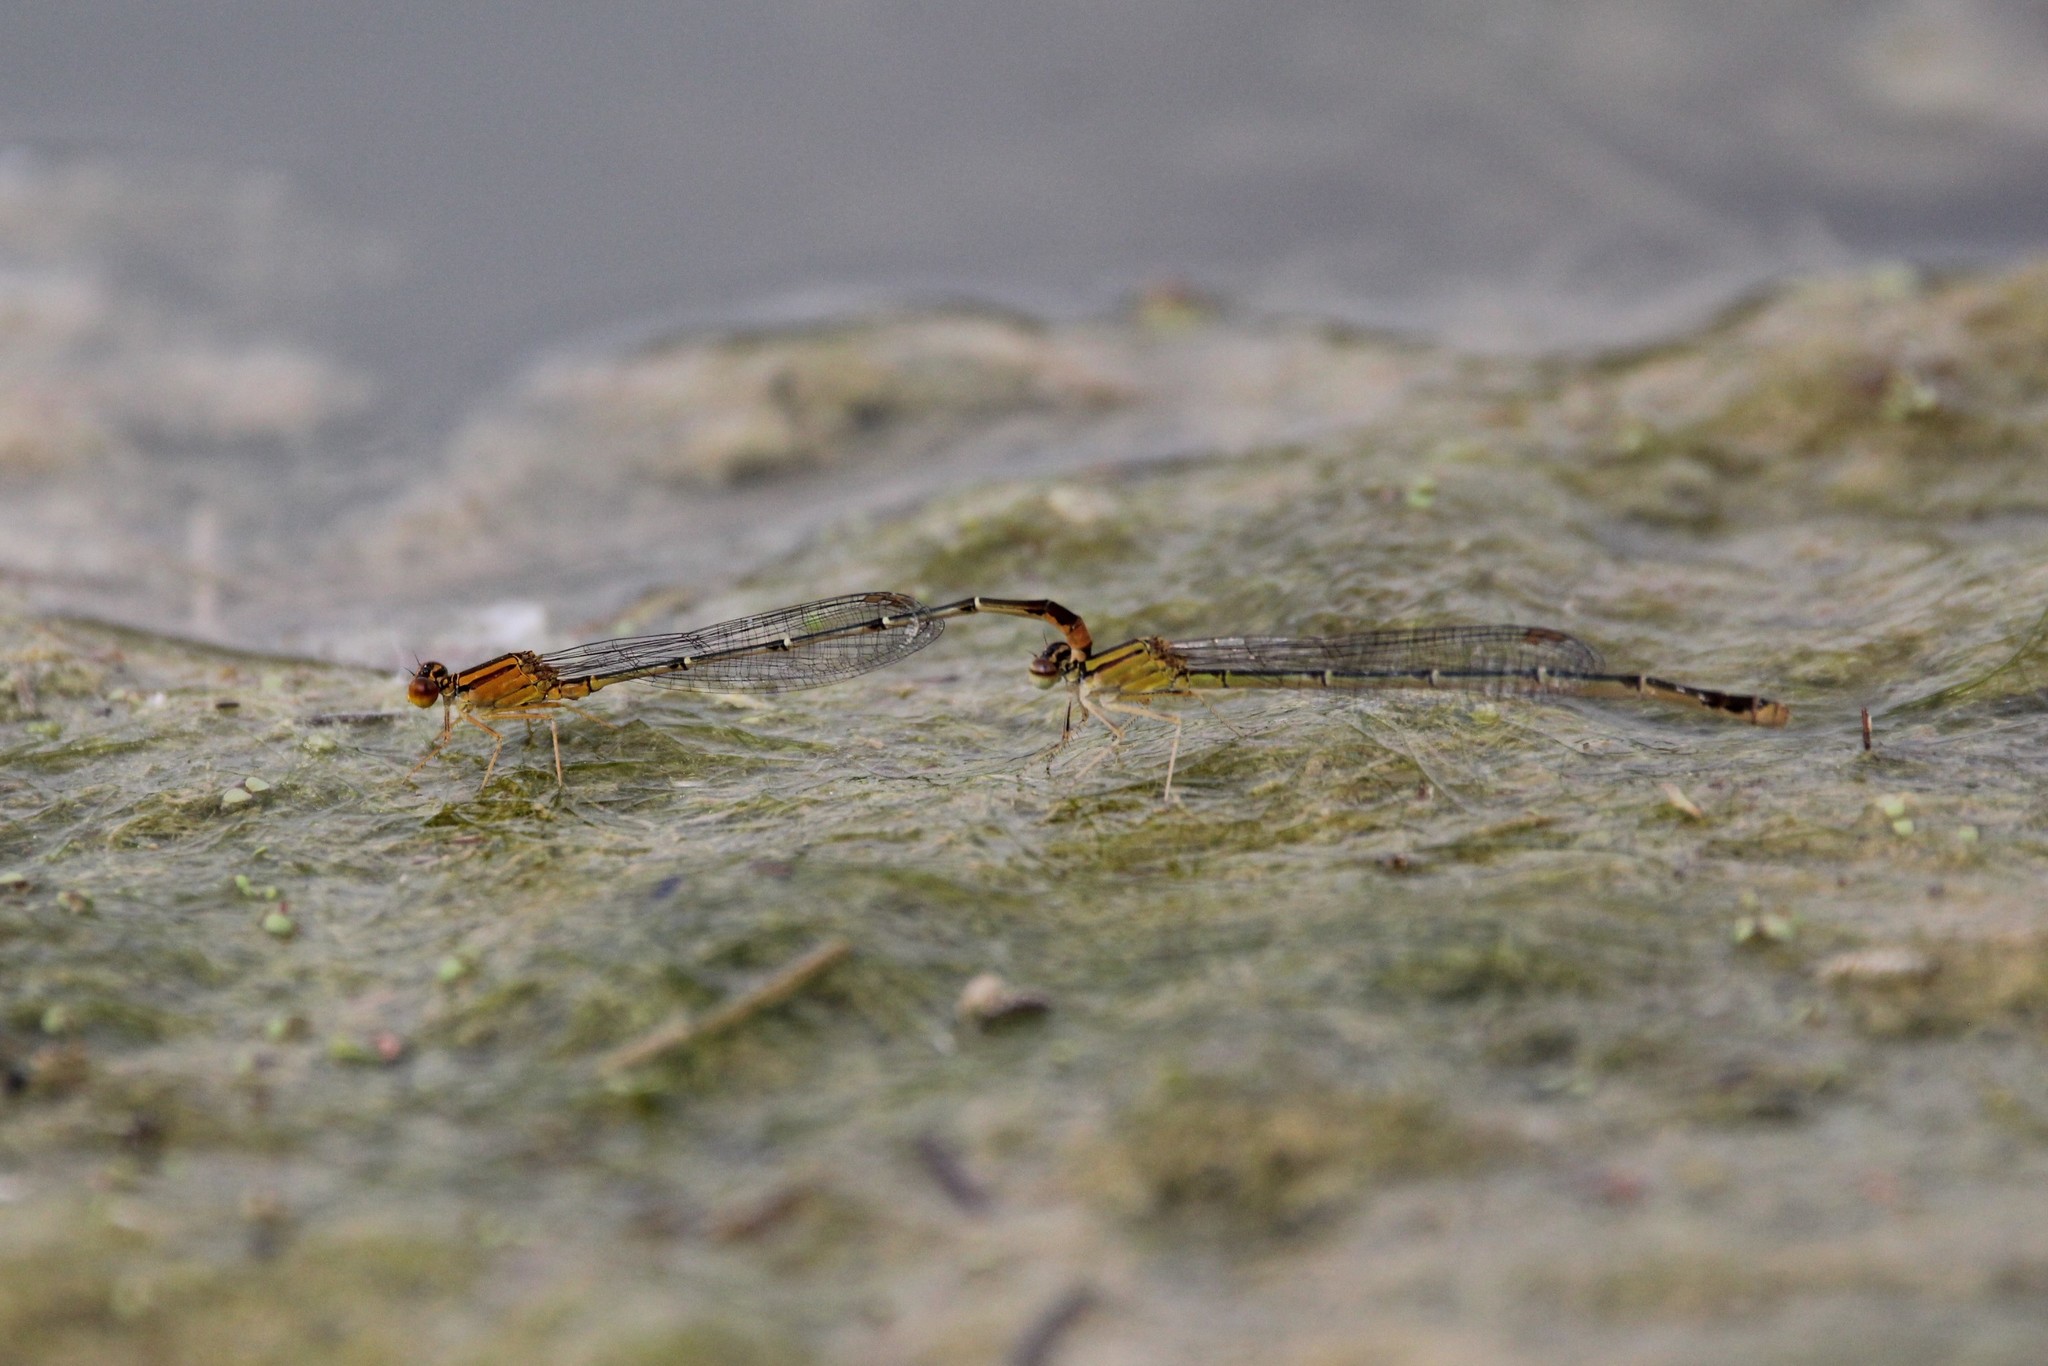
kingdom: Animalia
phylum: Arthropoda
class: Insecta
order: Odonata
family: Coenagrionidae
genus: Enallagma
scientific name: Enallagma signatum
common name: Orange bluet
